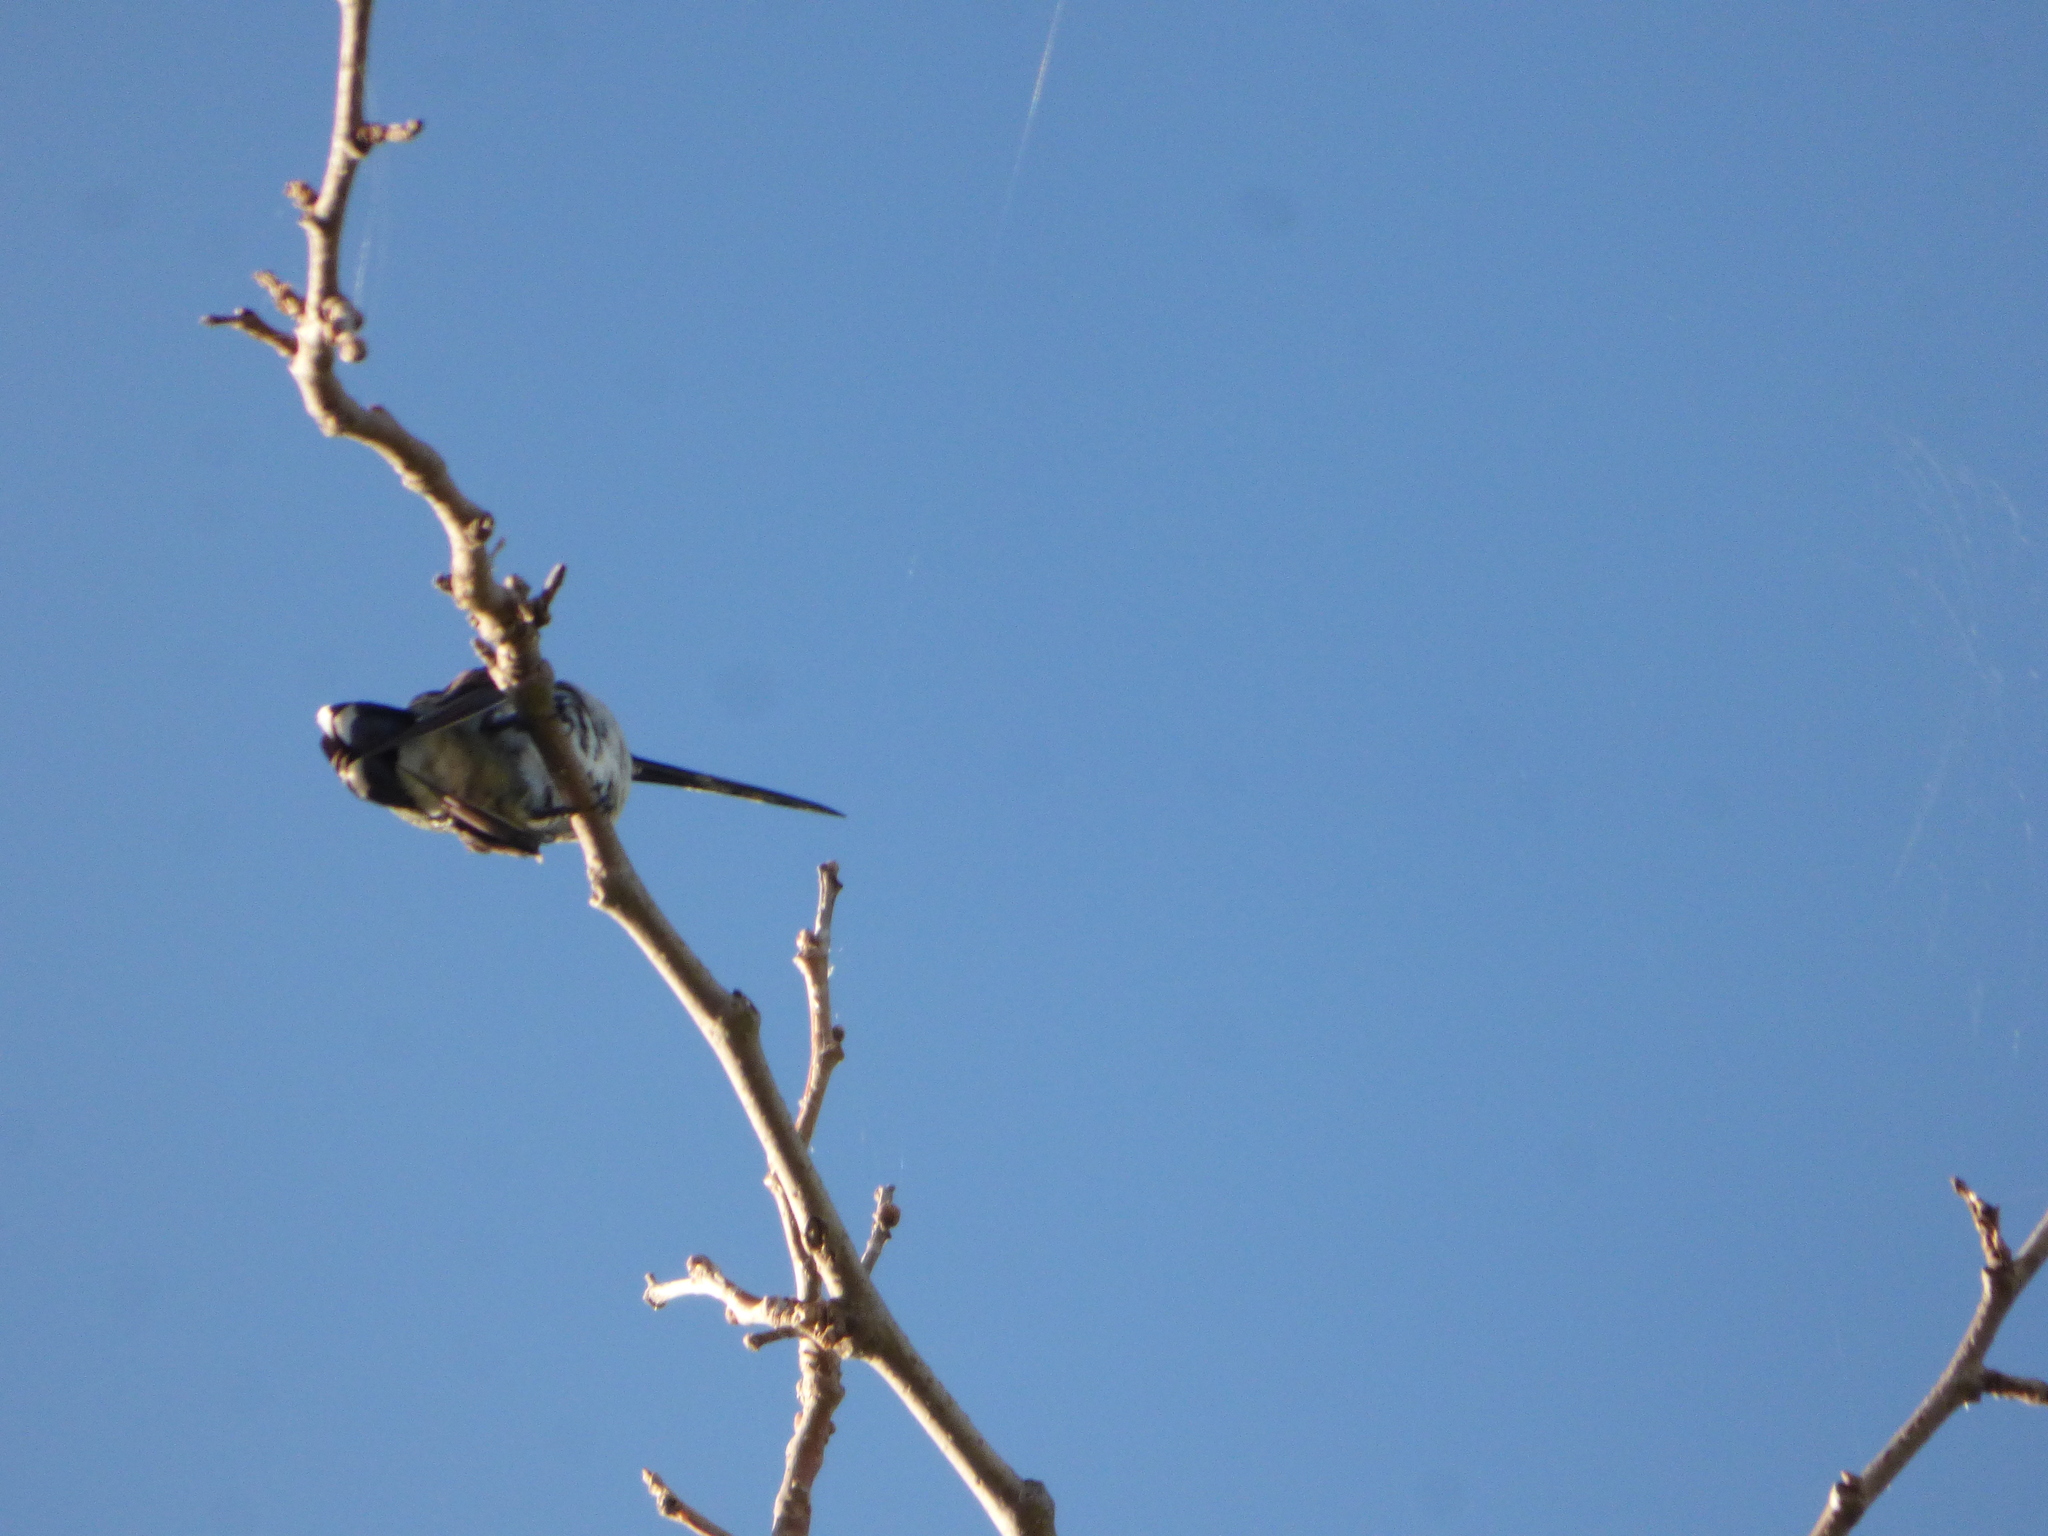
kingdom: Animalia
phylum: Chordata
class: Aves
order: Apodiformes
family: Trochilidae
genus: Heliomaster
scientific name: Heliomaster furcifer
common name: Blue-tufted starthroat
